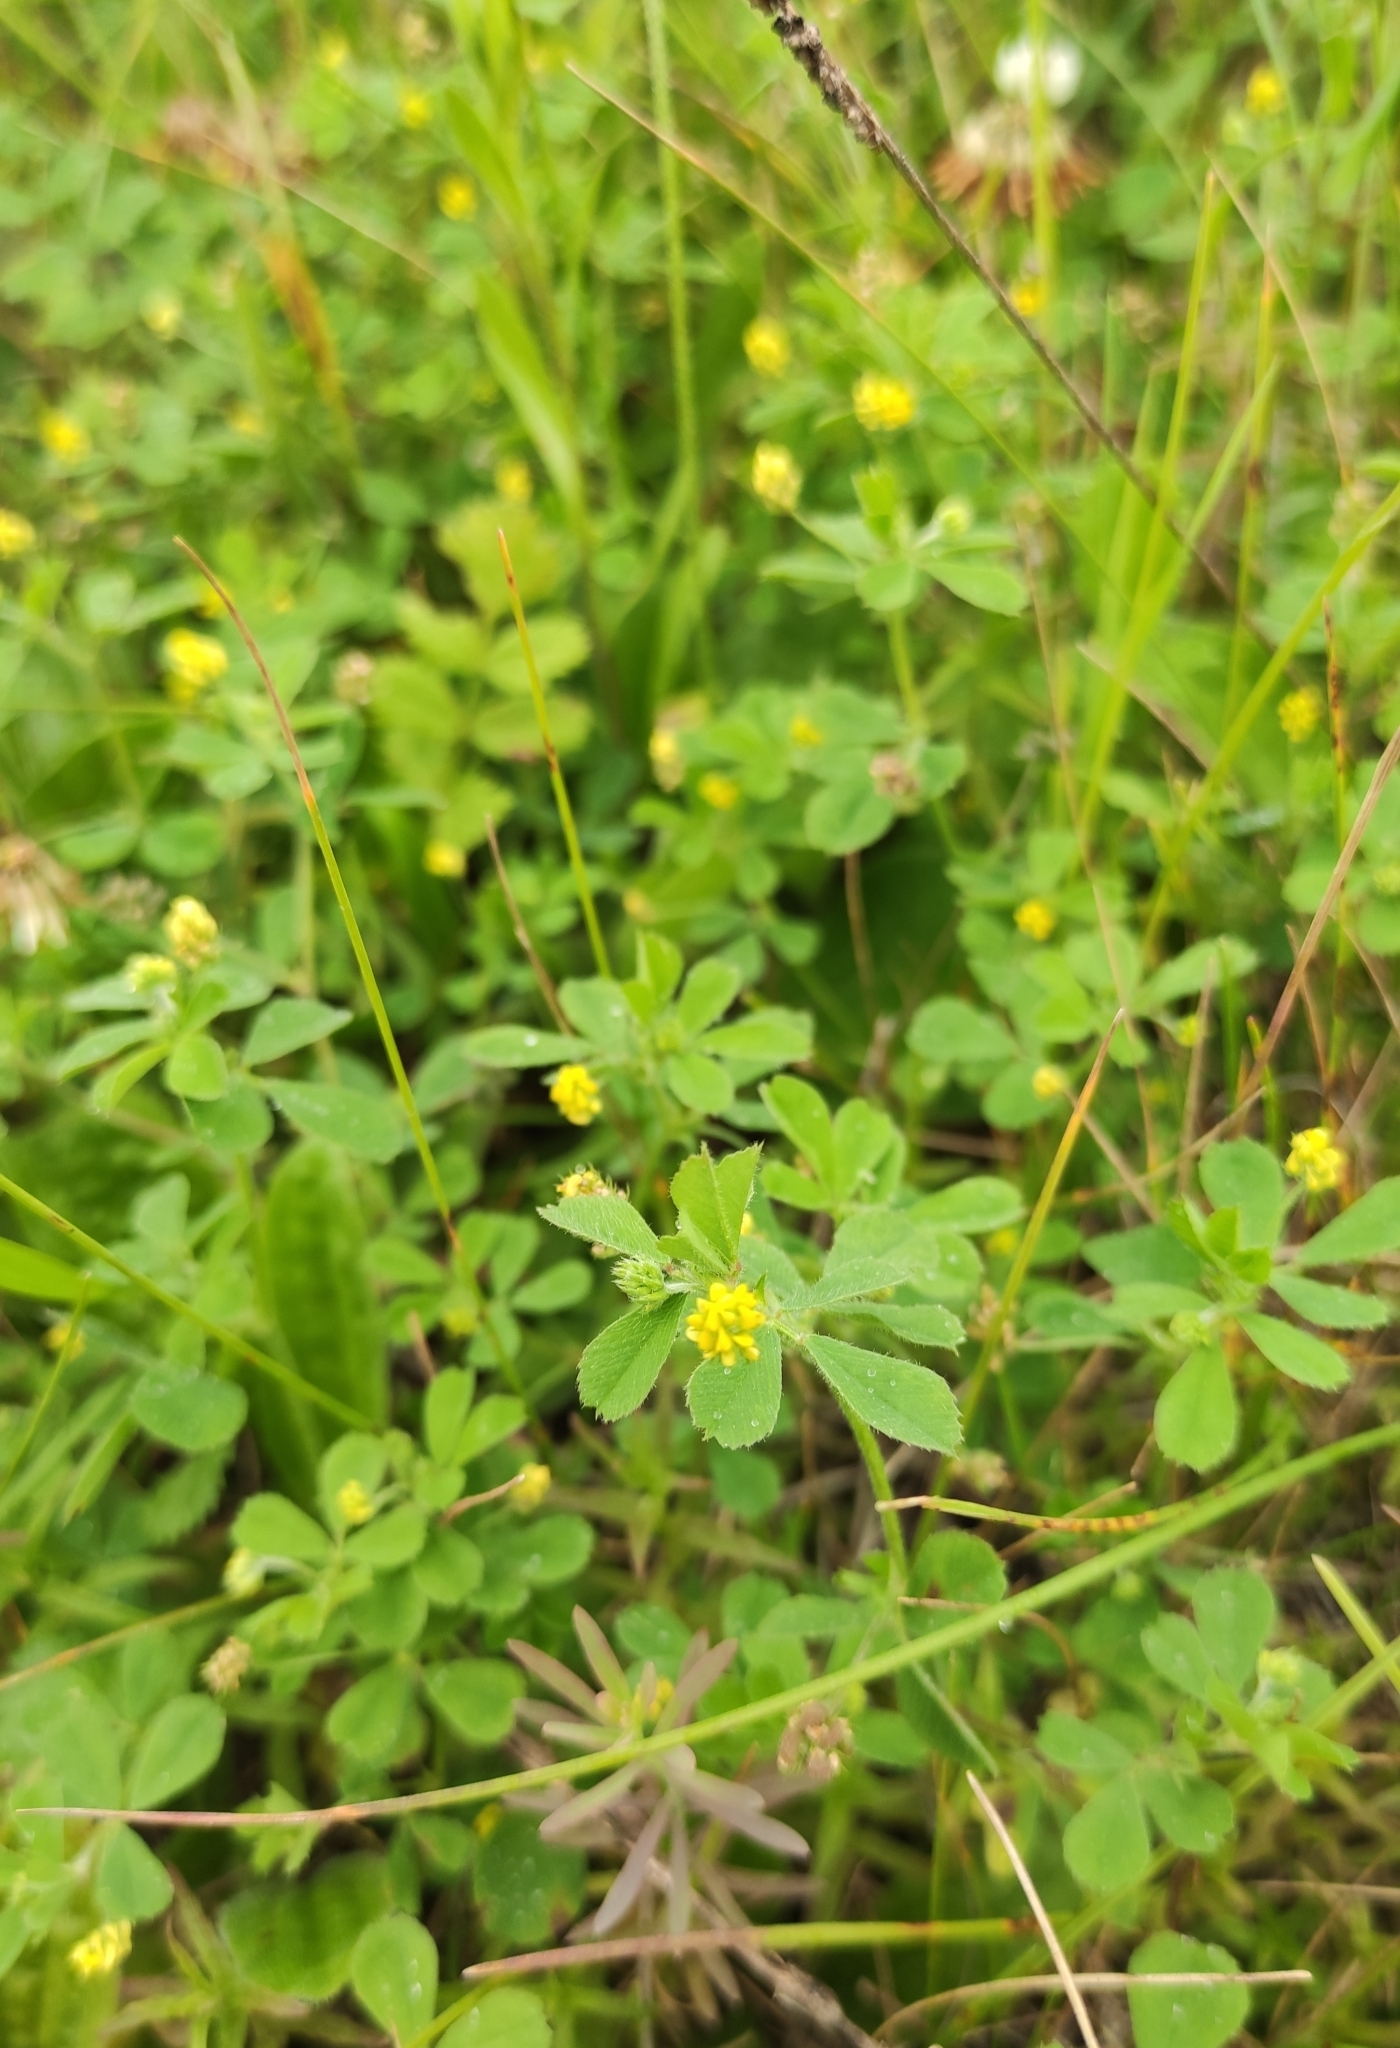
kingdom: Plantae
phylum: Tracheophyta
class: Magnoliopsida
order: Fabales
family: Fabaceae
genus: Medicago
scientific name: Medicago lupulina
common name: Black medick
